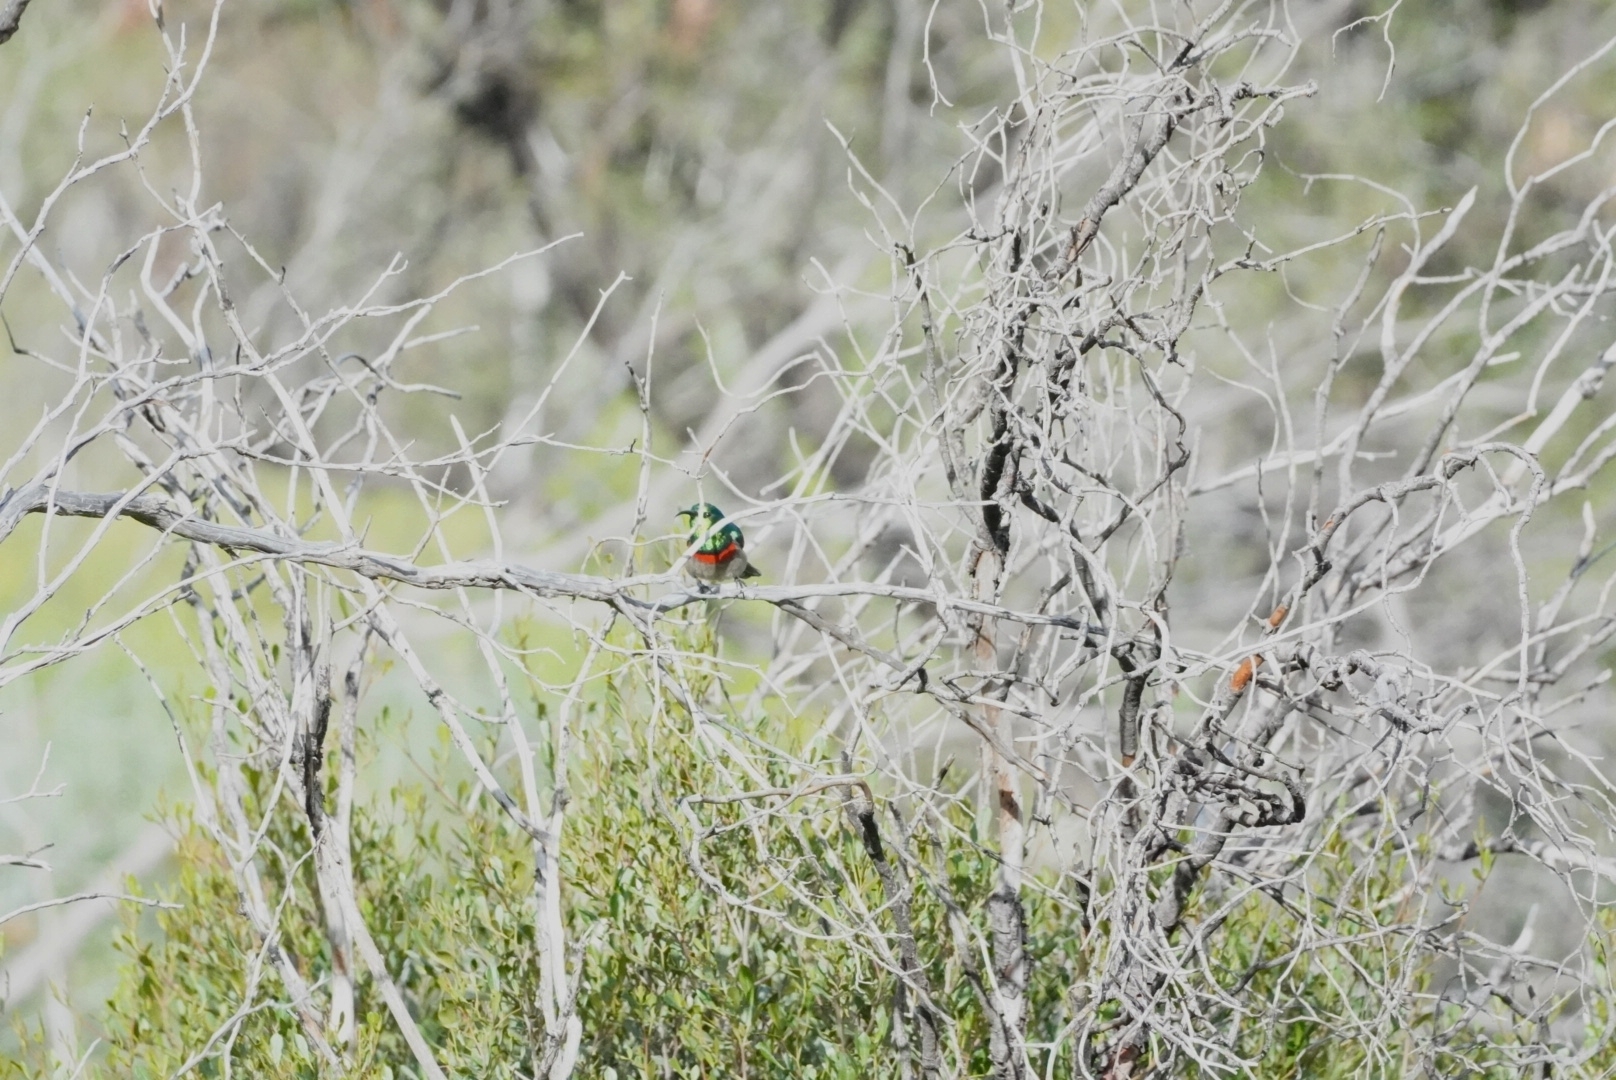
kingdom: Animalia
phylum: Chordata
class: Aves
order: Passeriformes
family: Nectariniidae
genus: Cinnyris
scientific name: Cinnyris chalybeus
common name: Southern double-collared sunbird
